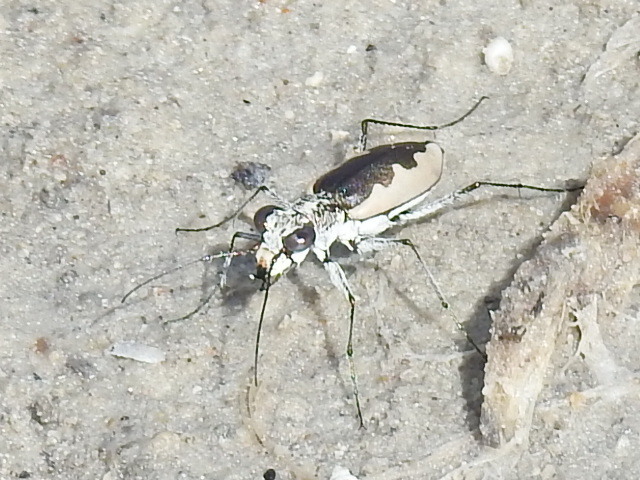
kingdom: Animalia
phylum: Arthropoda
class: Insecta
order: Coleoptera
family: Carabidae
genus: Eunota
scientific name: Eunota togata
